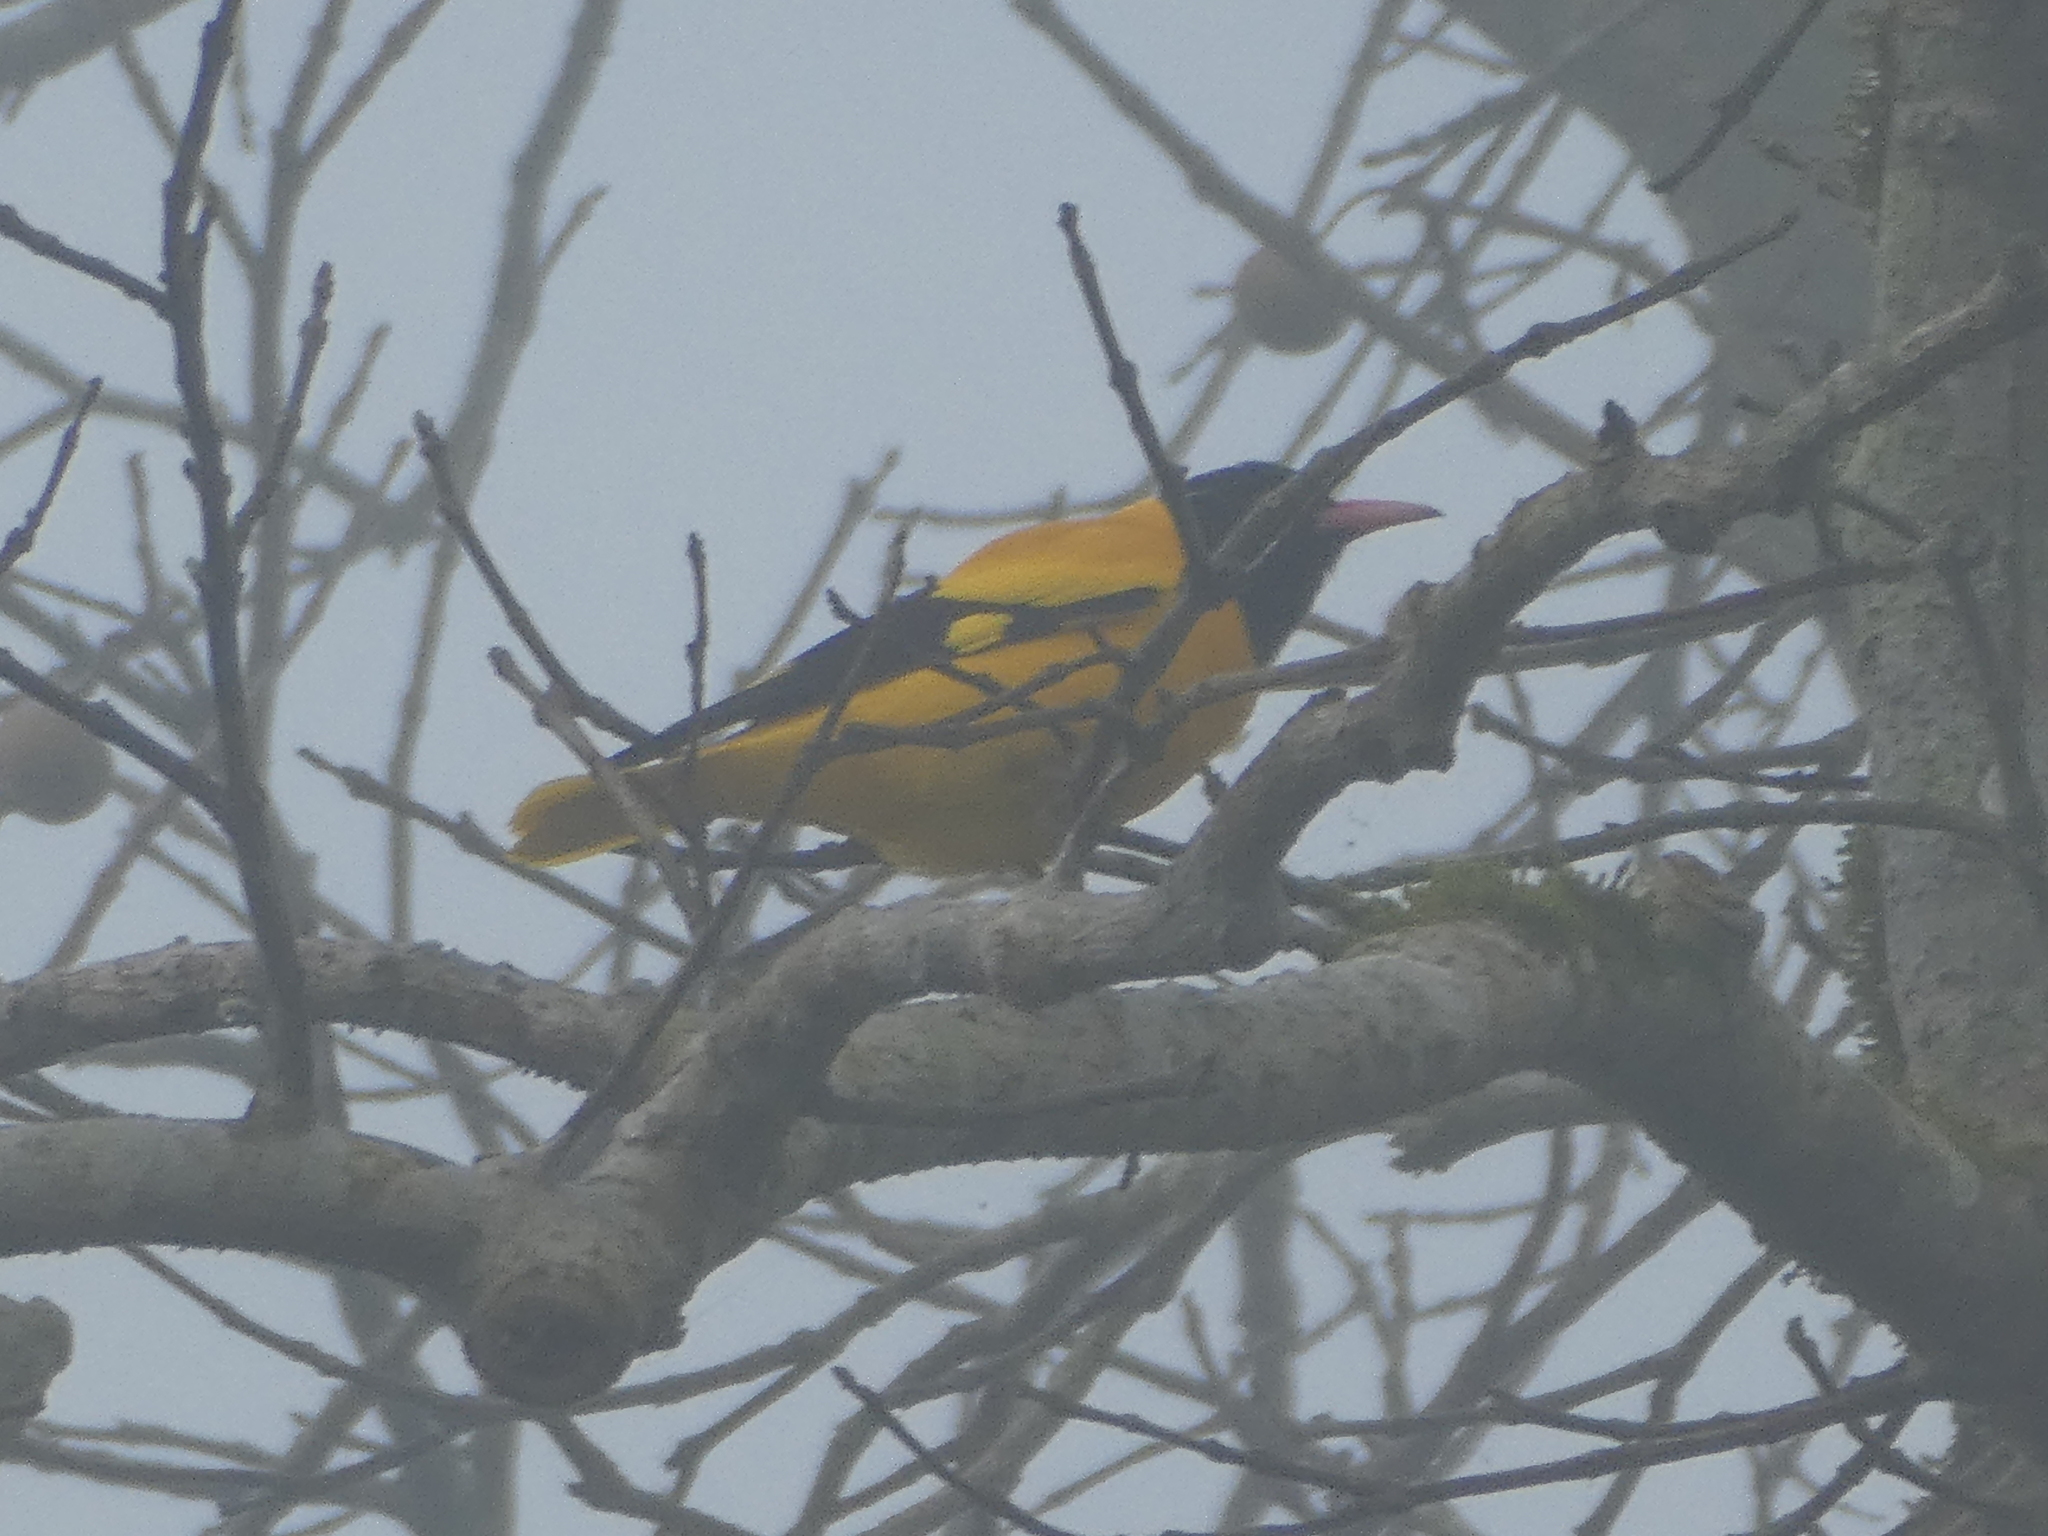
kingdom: Animalia
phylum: Chordata
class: Aves
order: Passeriformes
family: Oriolidae
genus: Oriolus
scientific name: Oriolus xanthornus
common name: Black-hooded oriole
